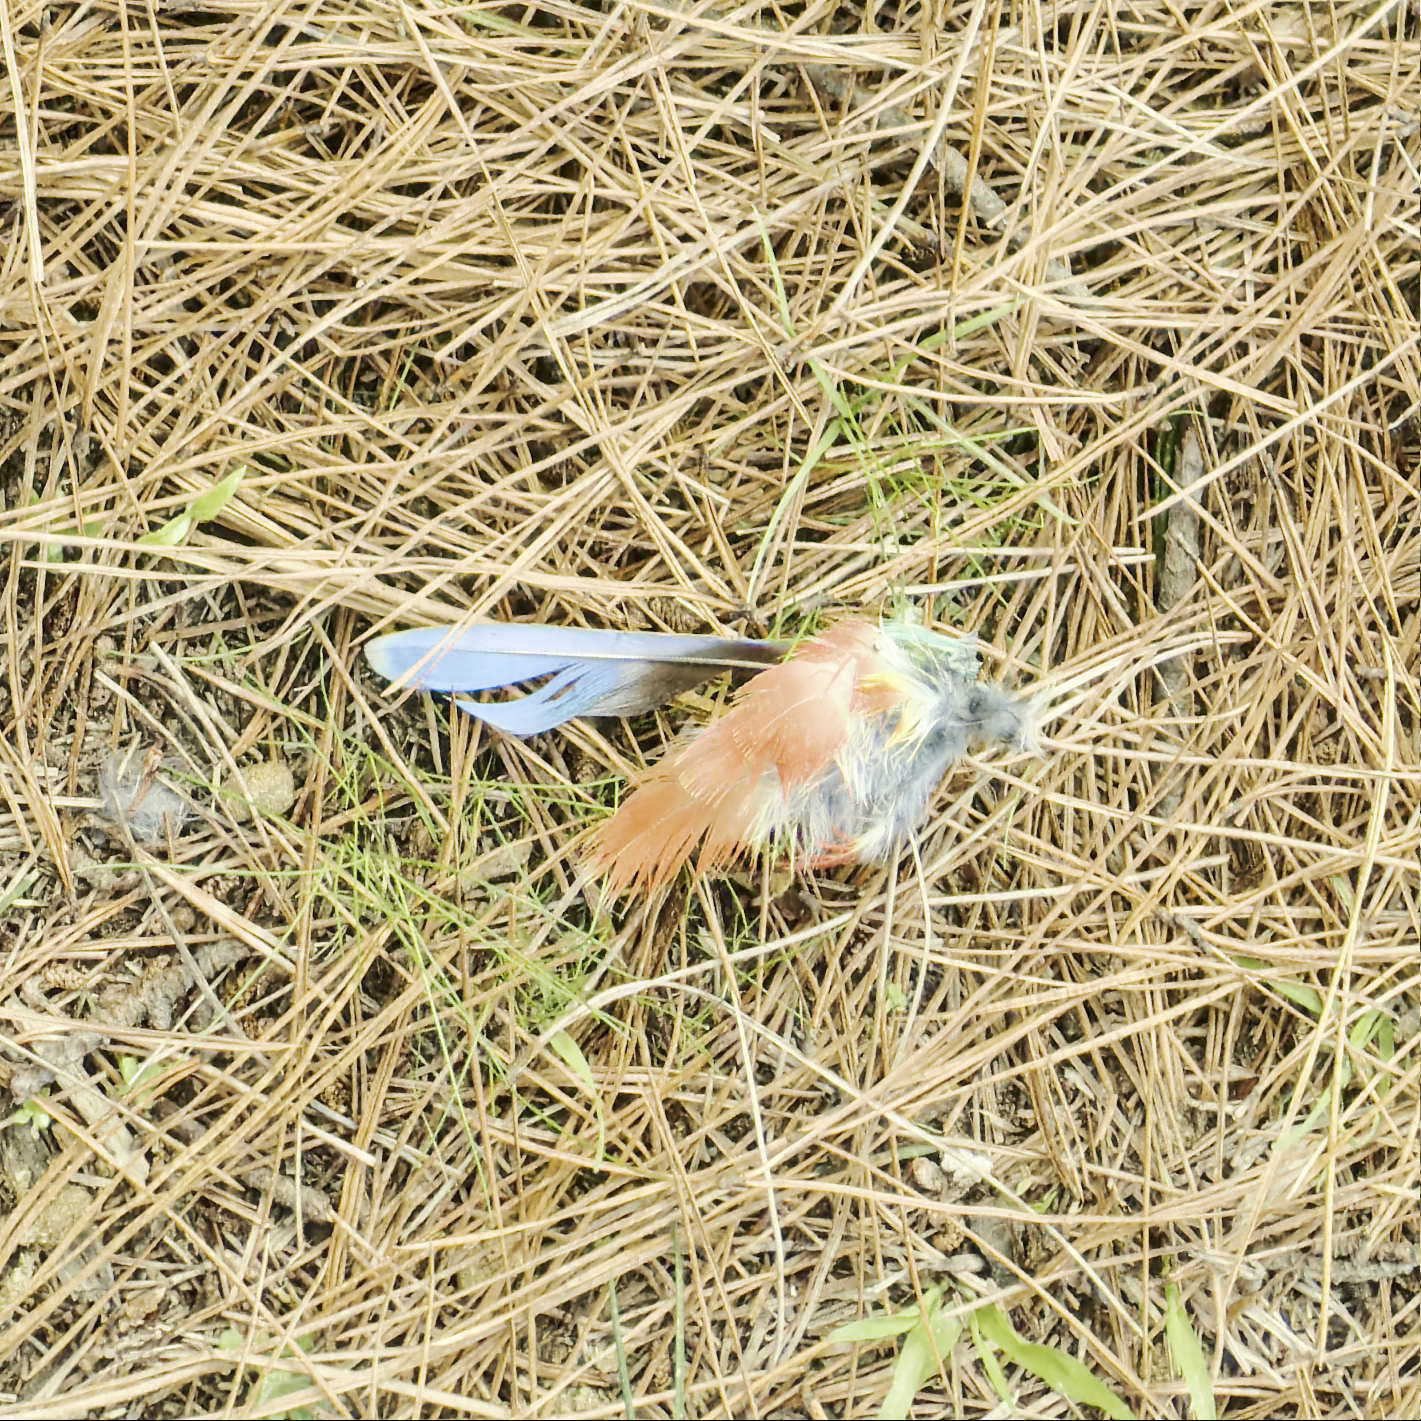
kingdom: Animalia
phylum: Chordata
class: Aves
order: Psittaciformes
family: Psittacidae
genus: Platycercus
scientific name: Platycercus eximius
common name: Eastern rosella
